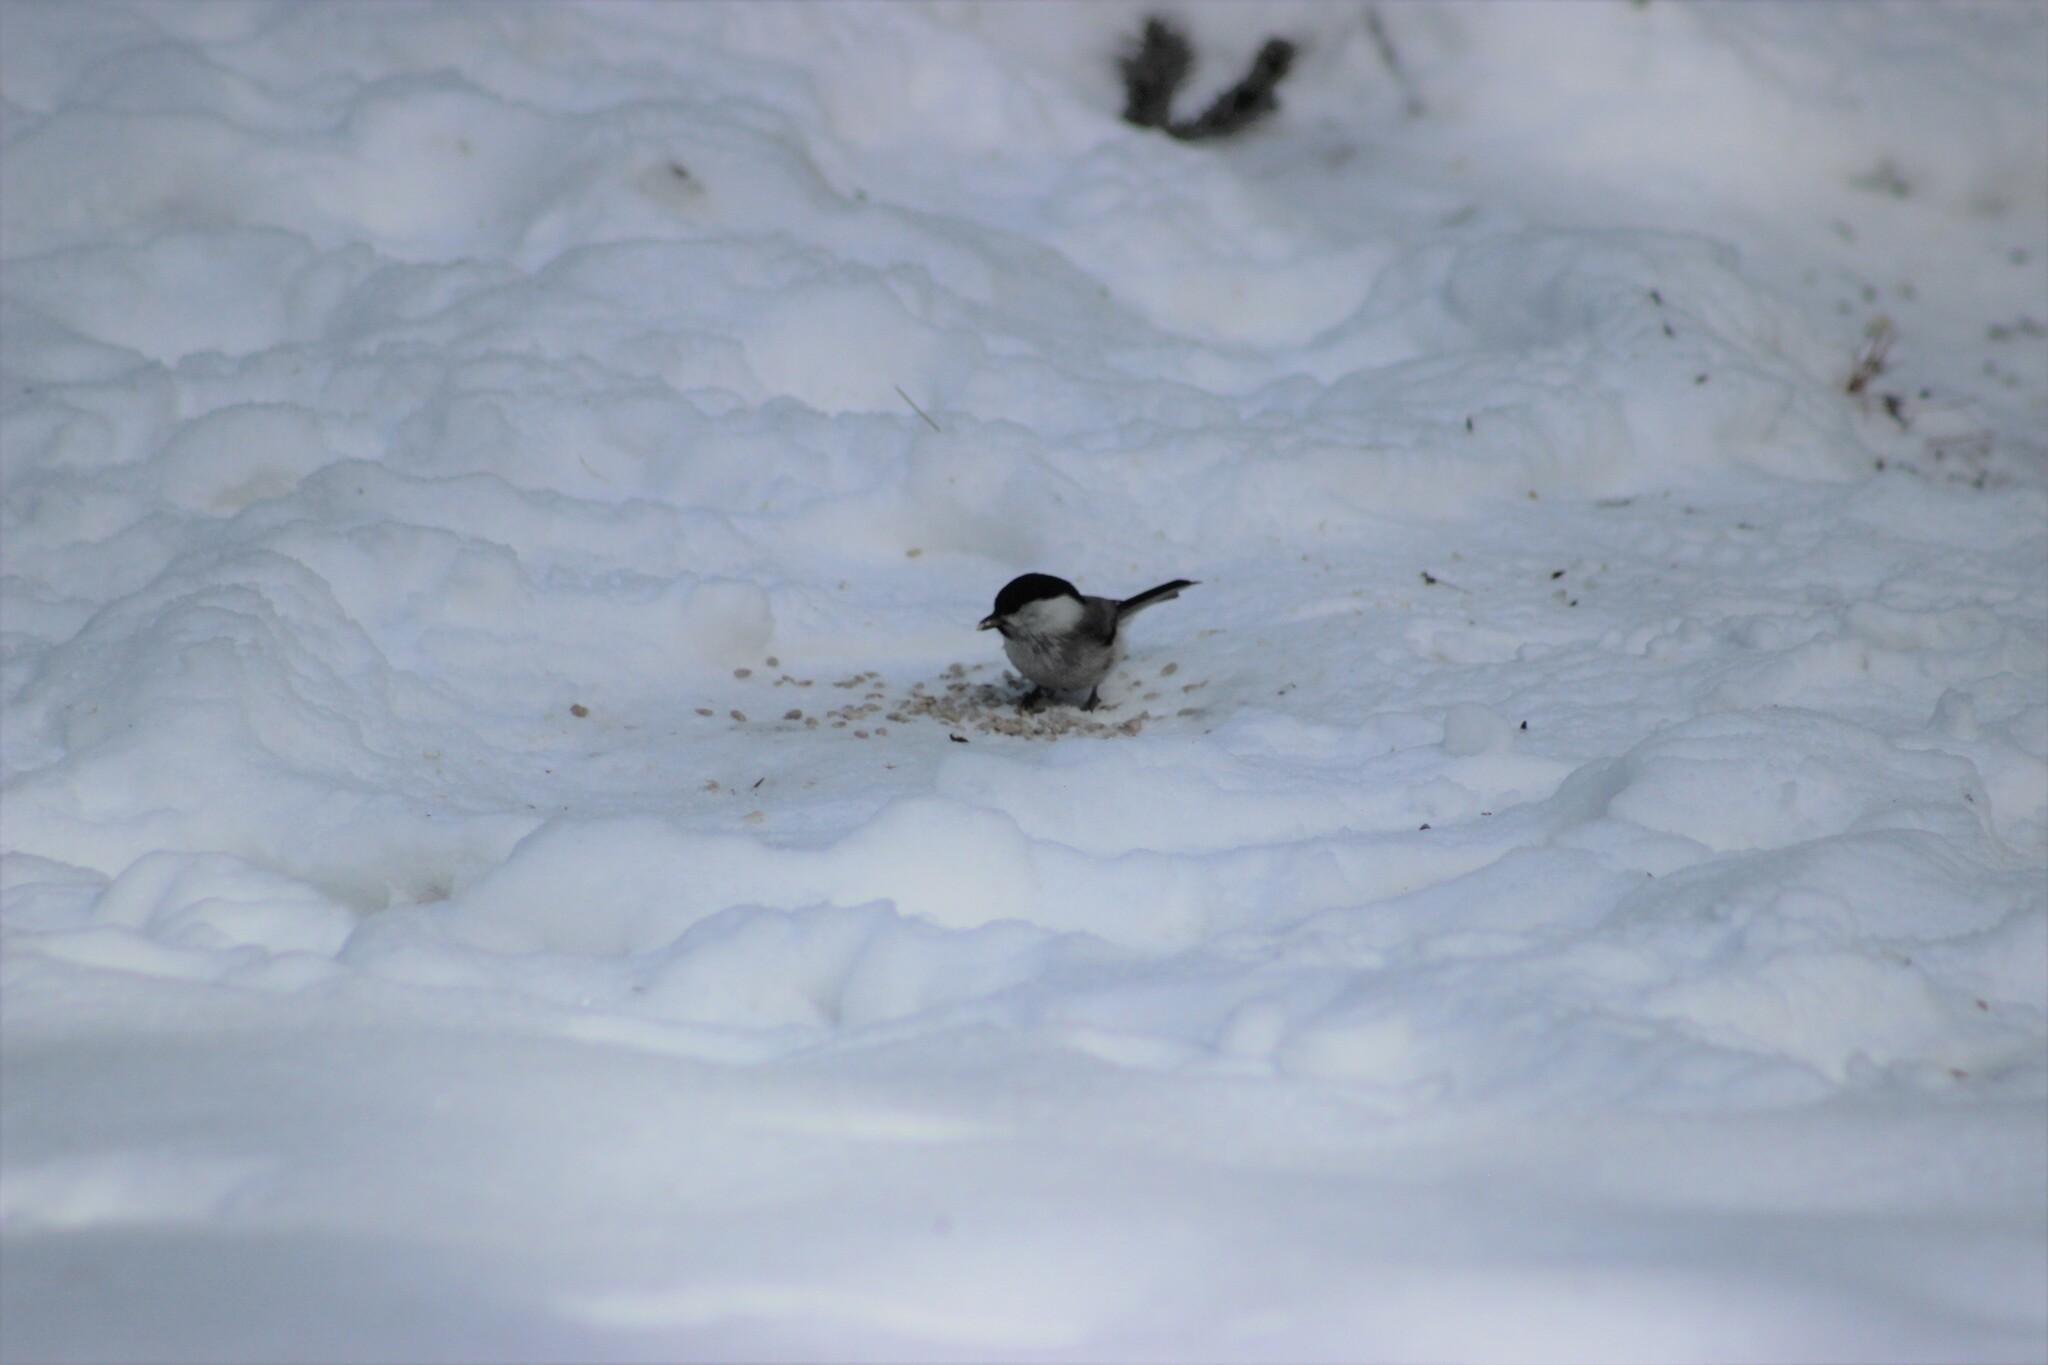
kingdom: Animalia
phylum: Chordata
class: Aves
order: Passeriformes
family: Paridae
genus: Poecile
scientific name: Poecile montanus
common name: Willow tit
